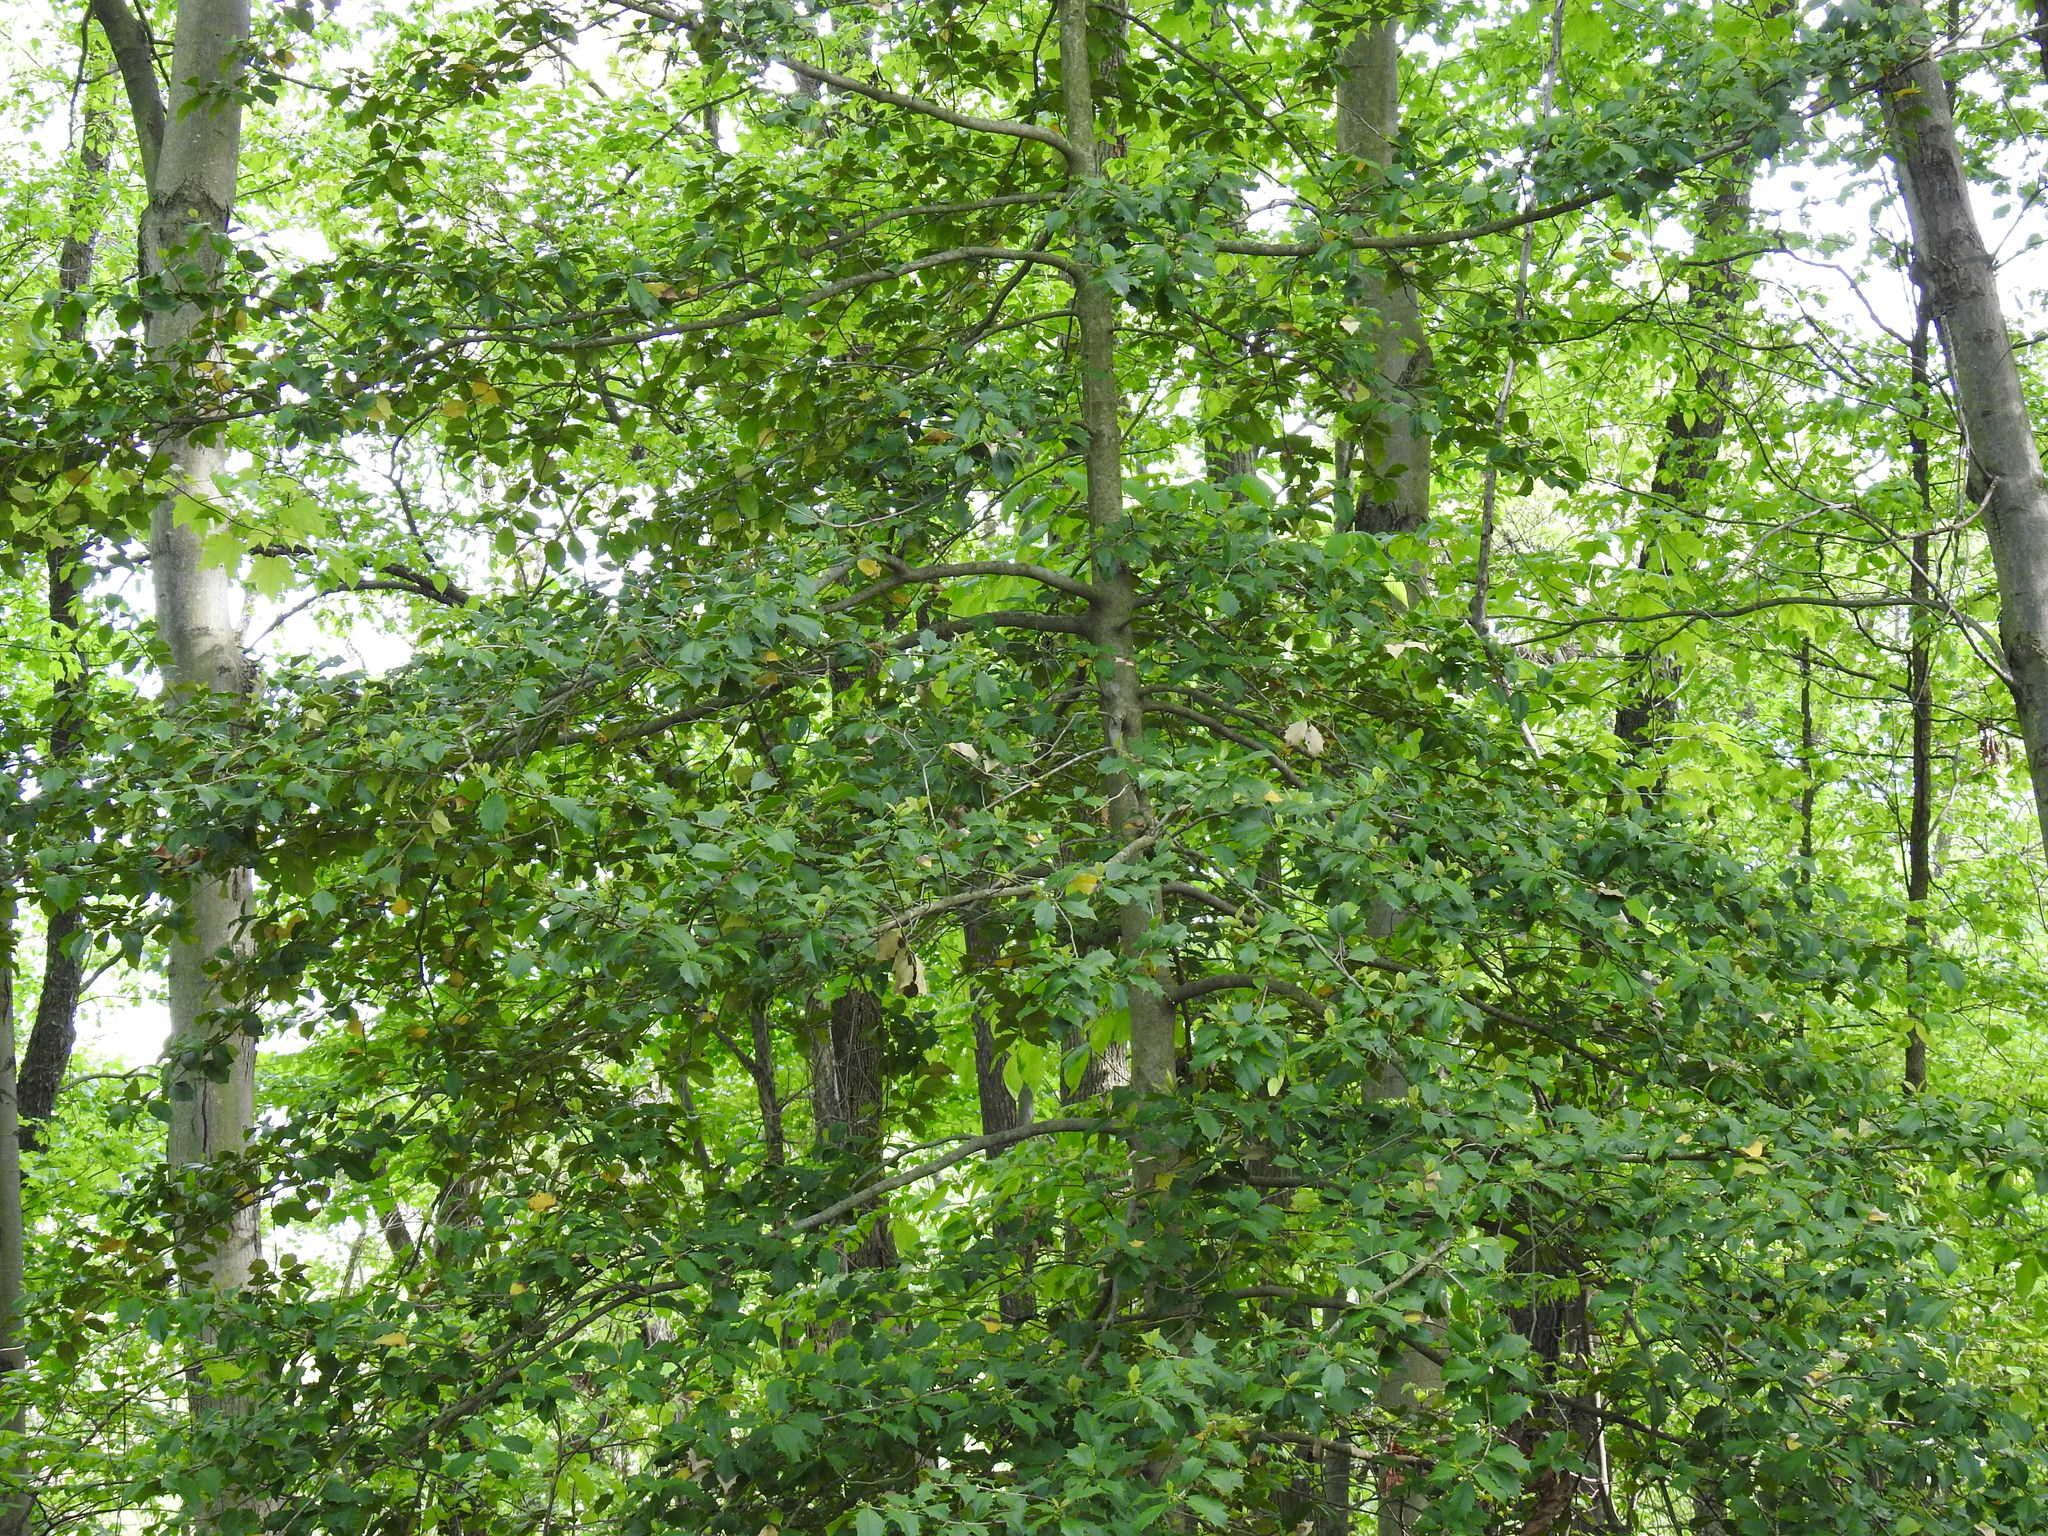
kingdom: Plantae
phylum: Tracheophyta
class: Magnoliopsida
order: Aquifoliales
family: Aquifoliaceae
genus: Ilex
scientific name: Ilex opaca
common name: American holly
